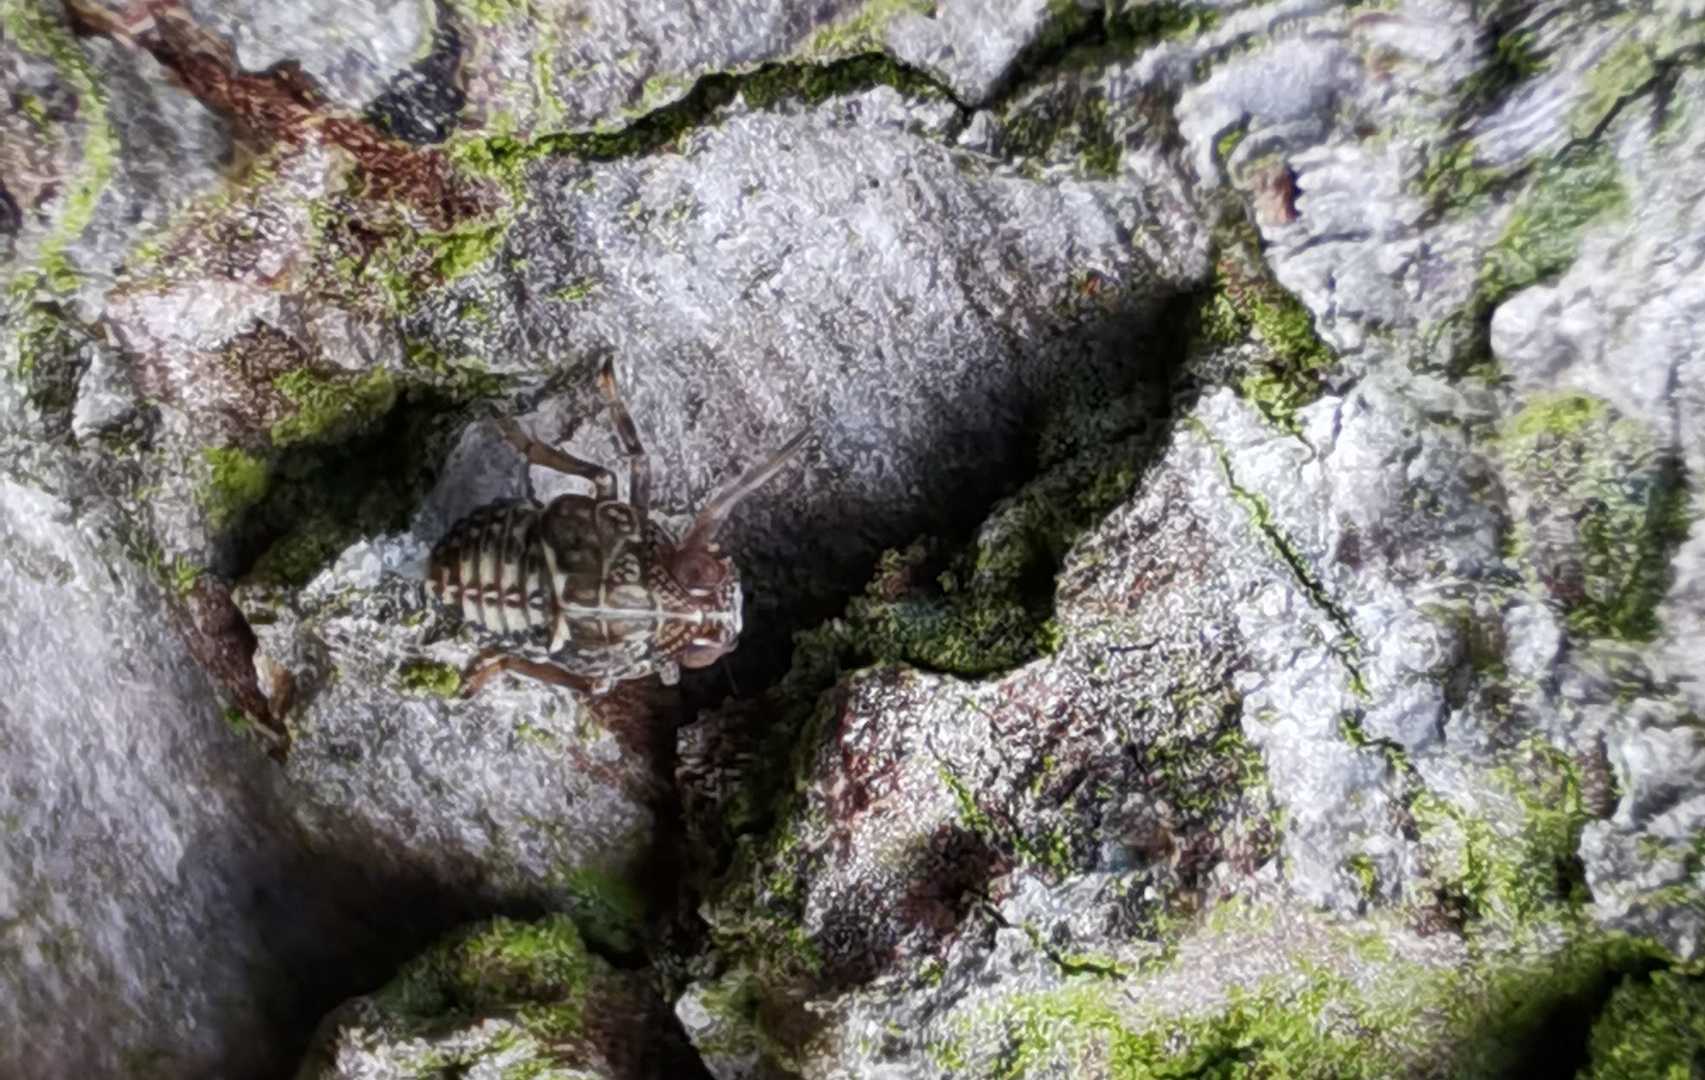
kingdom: Animalia
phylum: Arthropoda
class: Insecta
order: Hemiptera
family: Issidae
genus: Issus
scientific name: Issus
